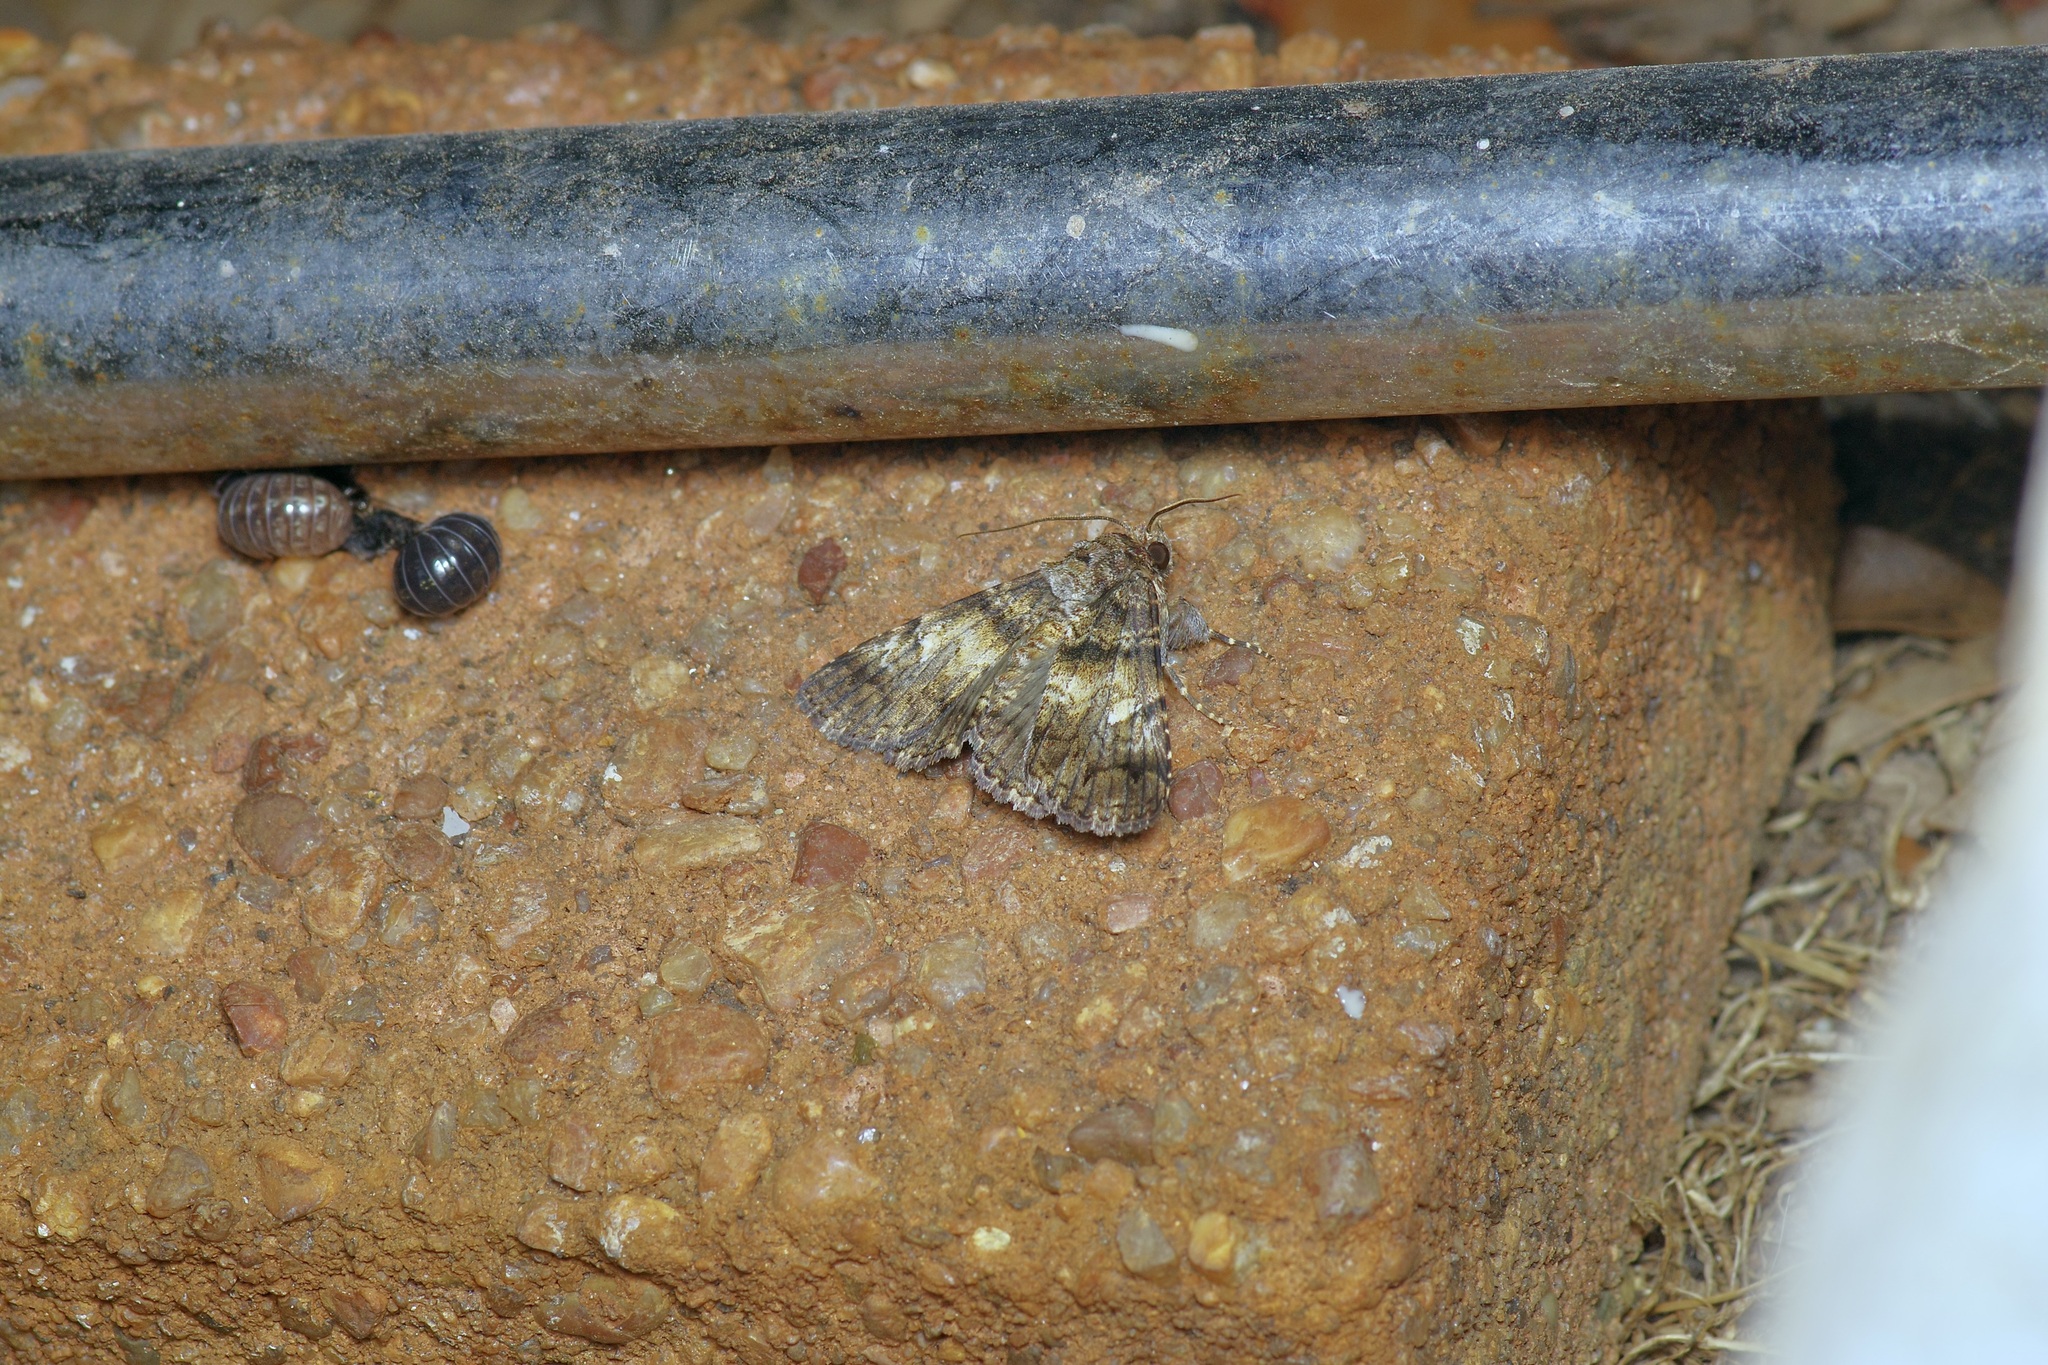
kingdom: Animalia
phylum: Arthropoda
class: Insecta
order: Lepidoptera
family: Erebidae
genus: Metria
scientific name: Metria amella
